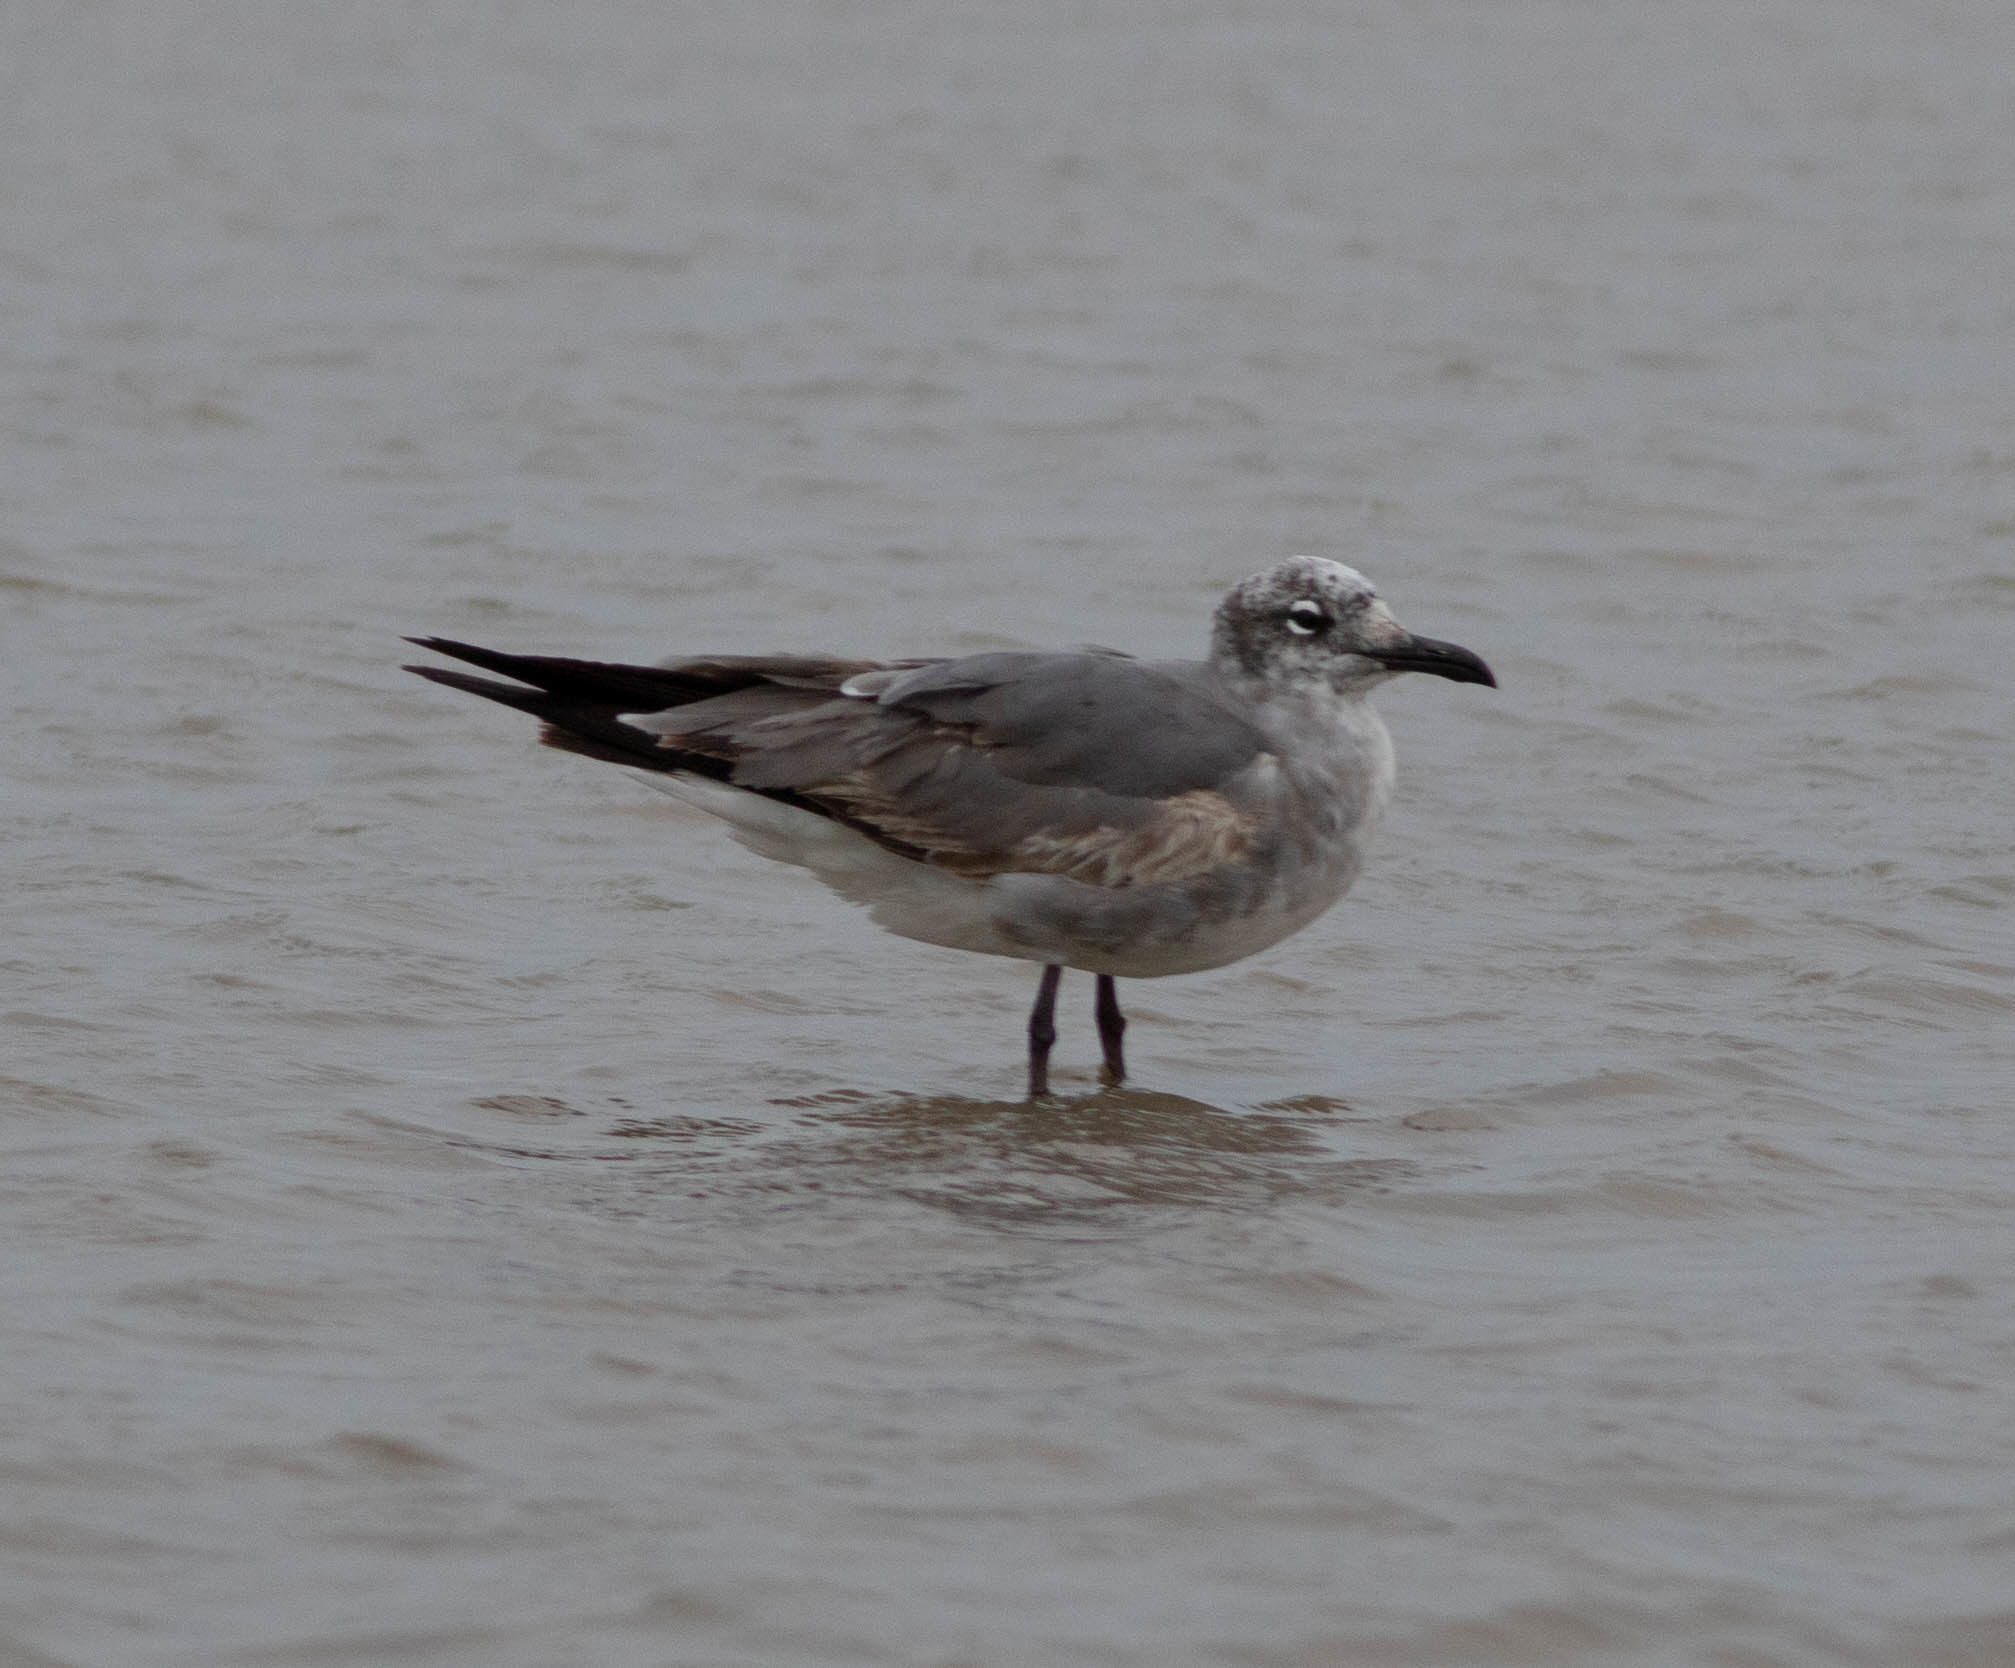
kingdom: Animalia
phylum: Chordata
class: Aves
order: Charadriiformes
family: Laridae
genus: Leucophaeus
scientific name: Leucophaeus atricilla
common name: Laughing gull
